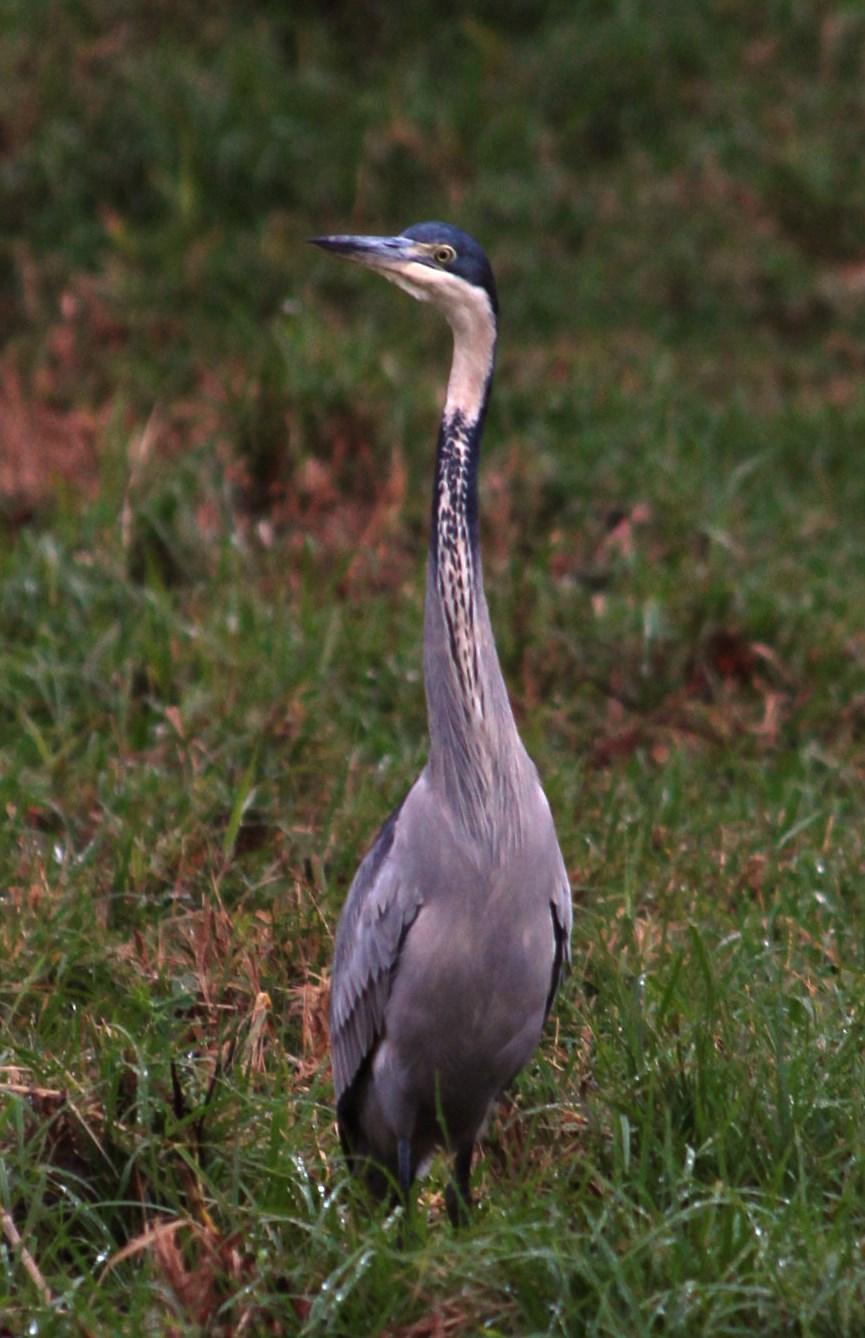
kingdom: Animalia
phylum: Chordata
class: Aves
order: Pelecaniformes
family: Ardeidae
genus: Ardea
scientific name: Ardea melanocephala
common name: Black-headed heron
